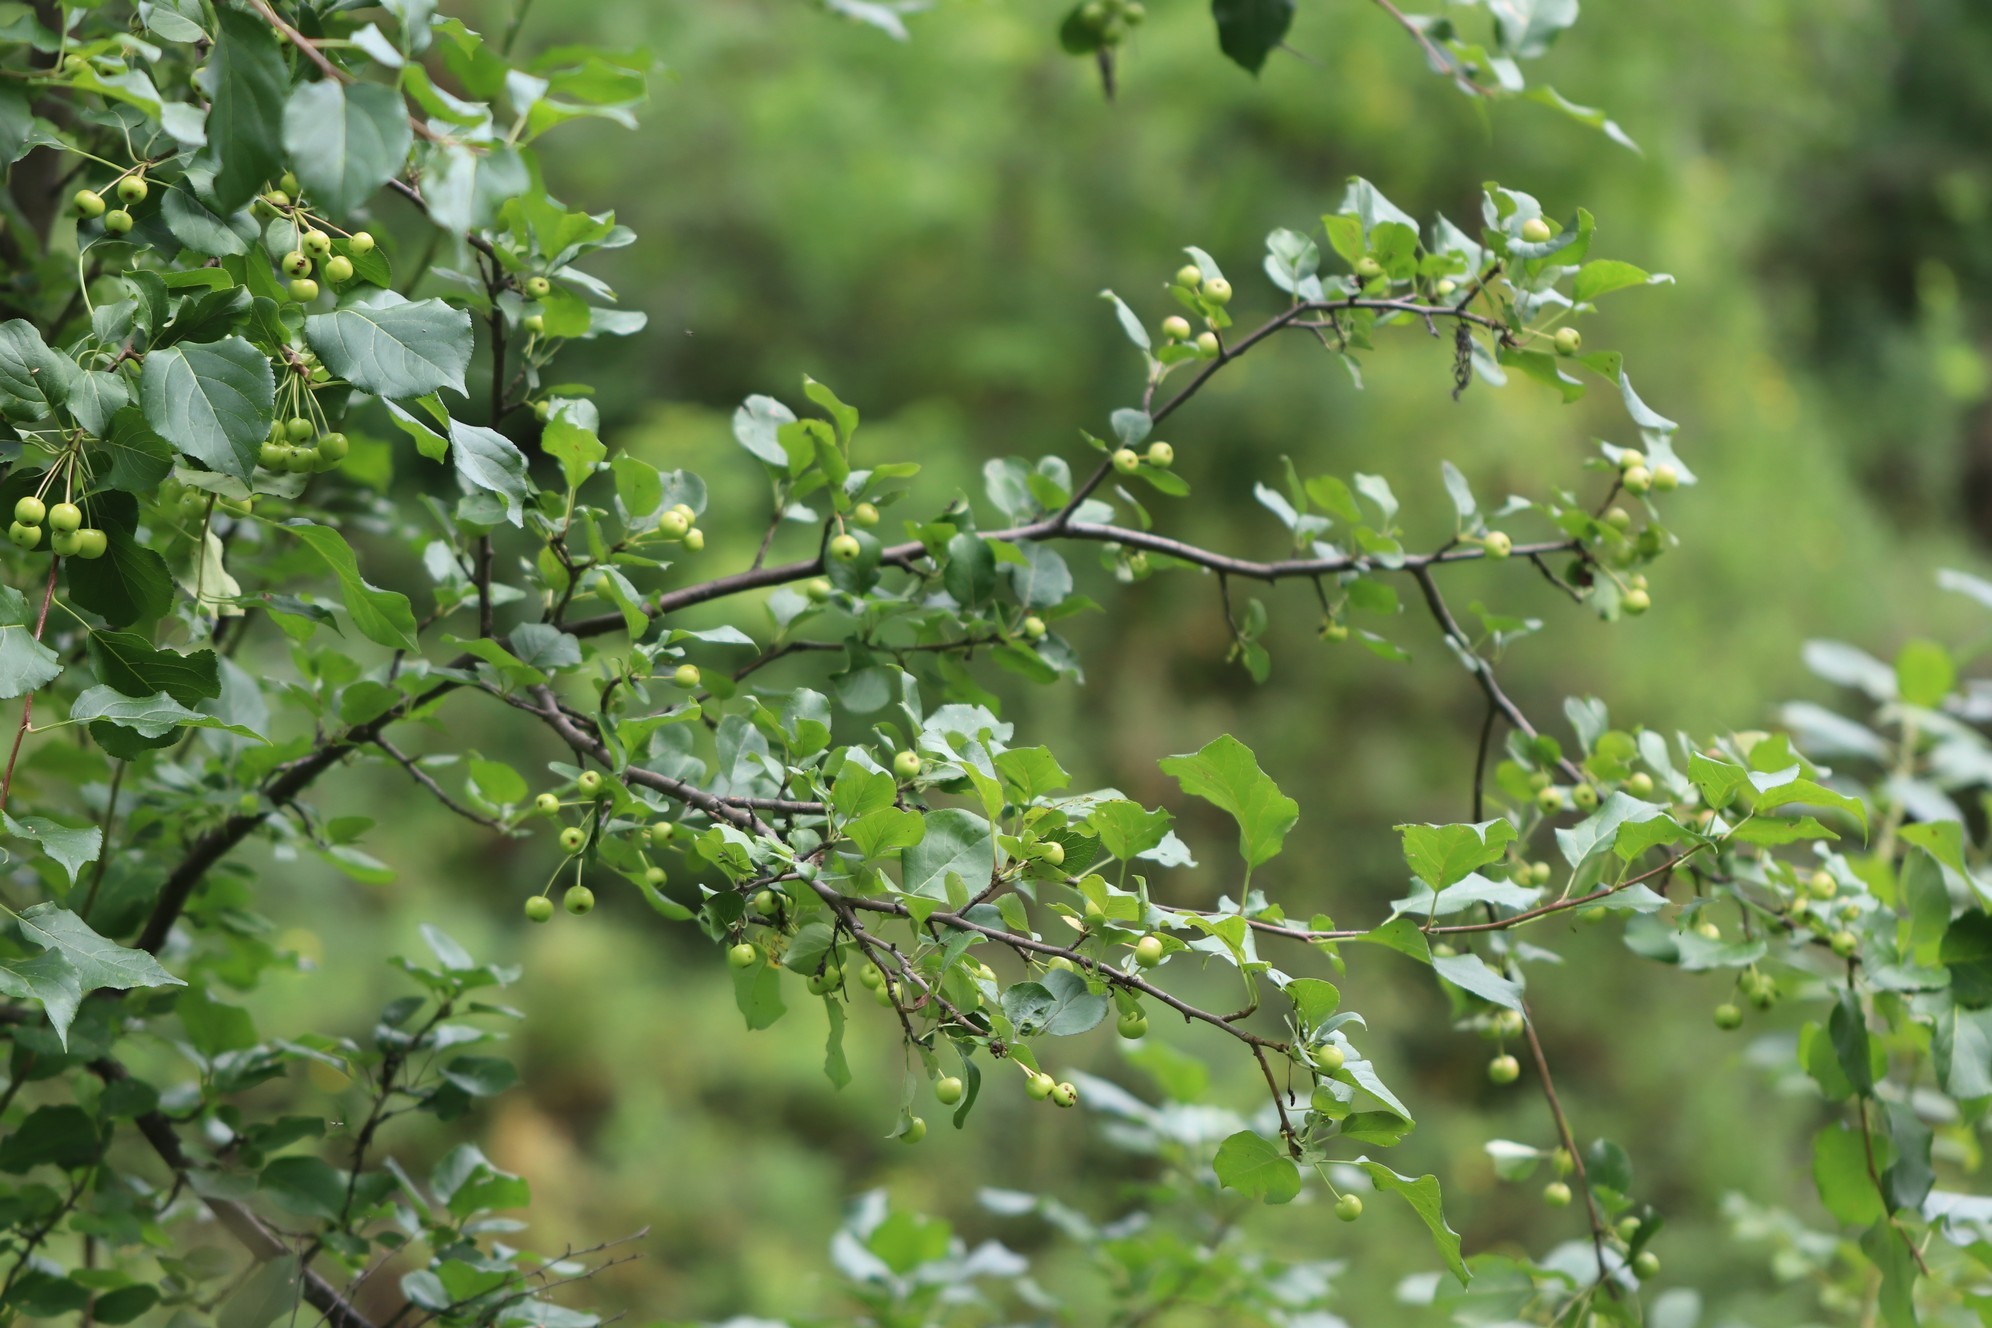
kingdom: Plantae
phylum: Tracheophyta
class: Magnoliopsida
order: Rosales
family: Rosaceae
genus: Malus
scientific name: Malus baccata
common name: Siberian crab
